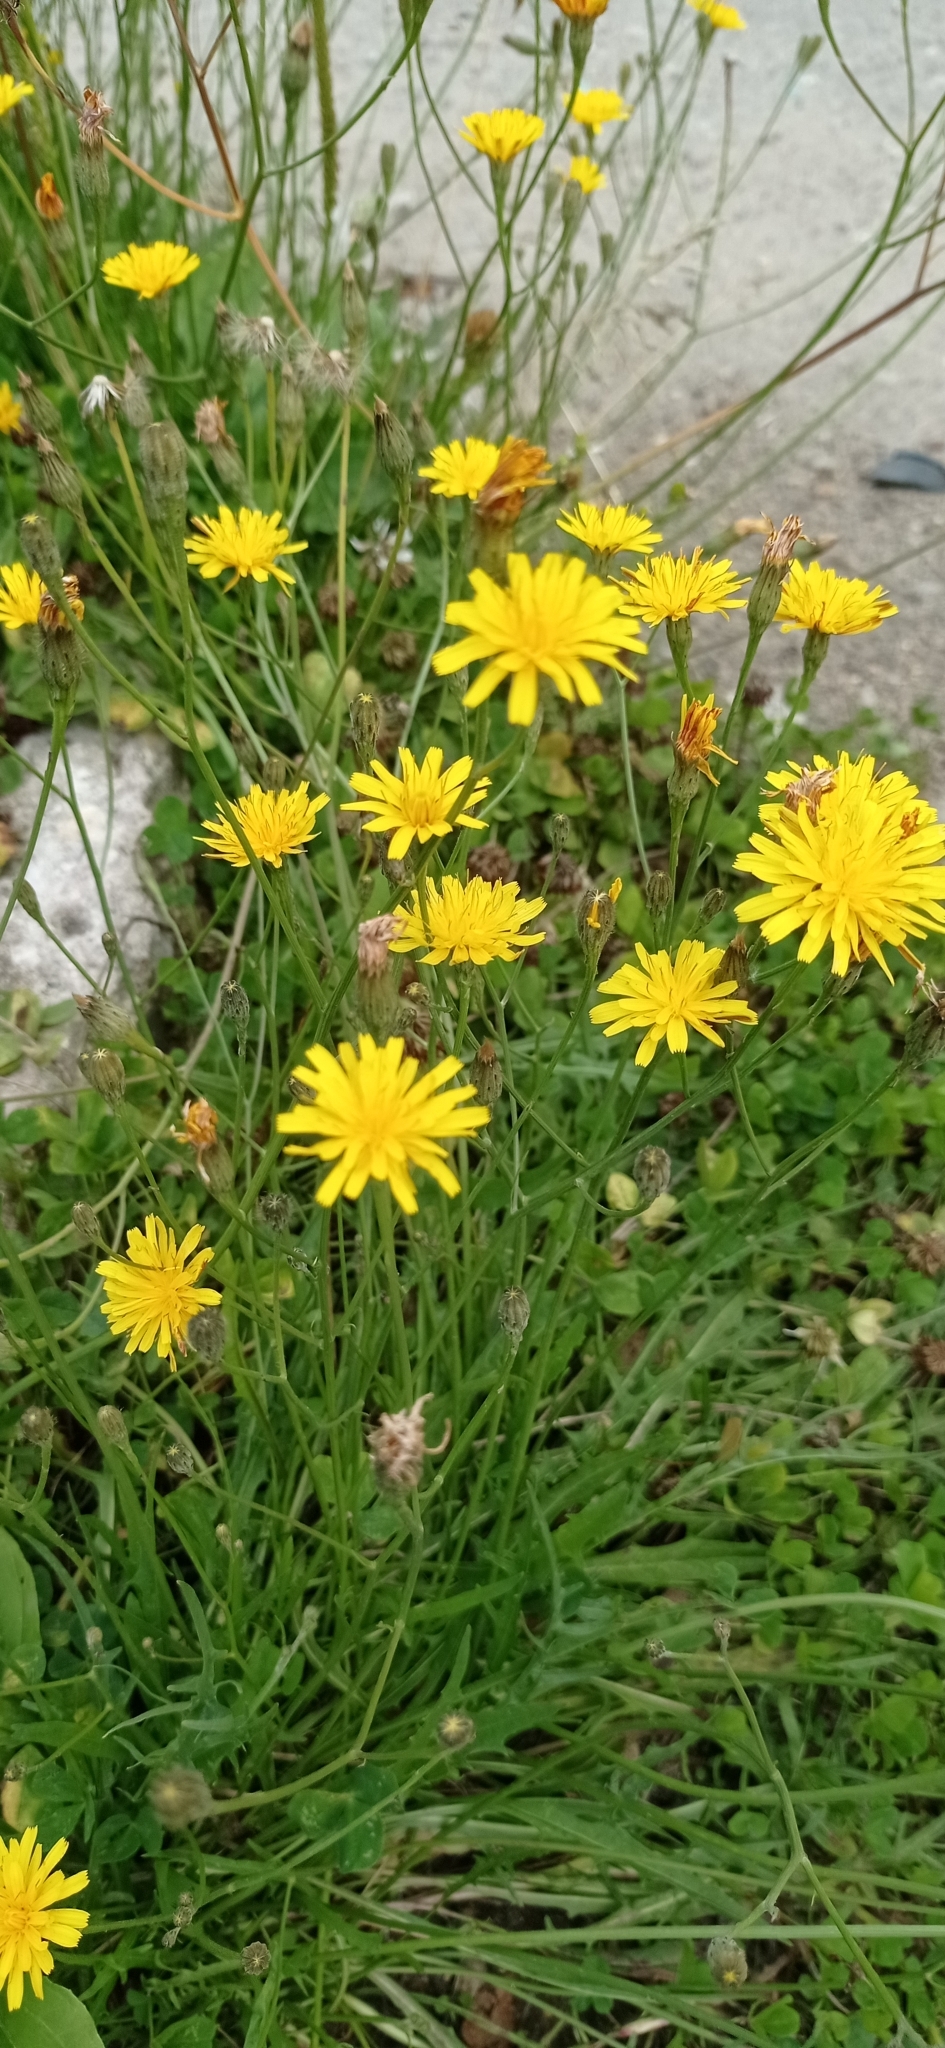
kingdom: Plantae
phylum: Tracheophyta
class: Magnoliopsida
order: Asterales
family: Asteraceae
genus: Scorzoneroides
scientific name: Scorzoneroides autumnalis
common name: Autumn hawkbit
